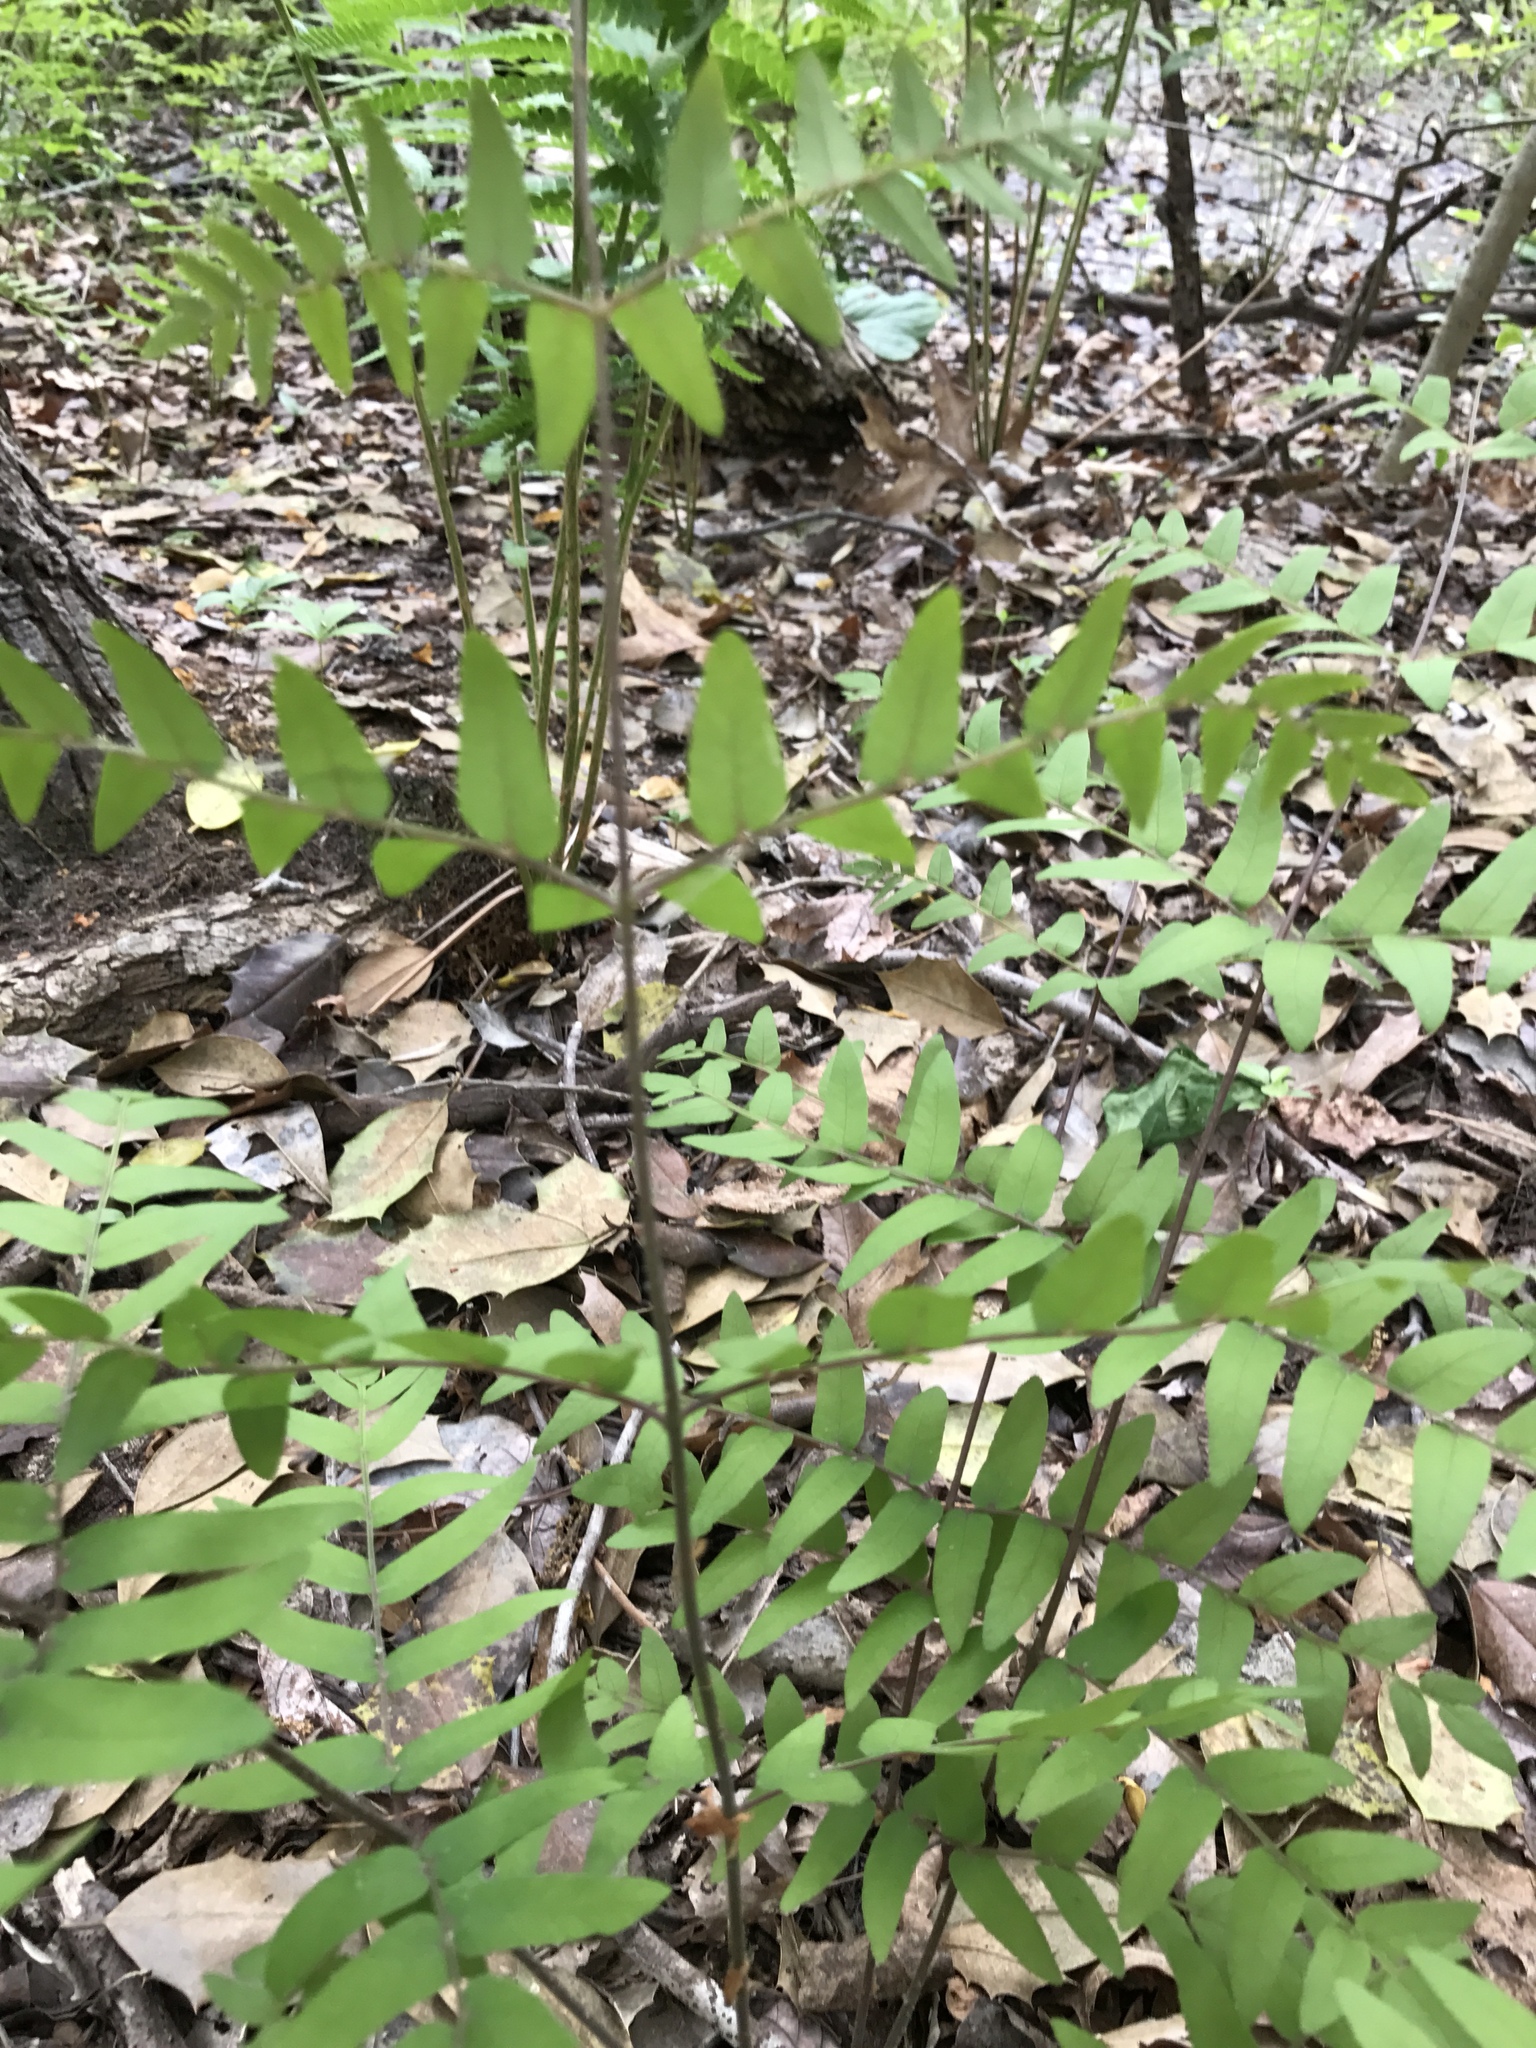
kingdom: Plantae
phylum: Tracheophyta
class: Polypodiopsida
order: Osmundales
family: Osmundaceae
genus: Osmunda
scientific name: Osmunda spectabilis
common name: American royal fern
